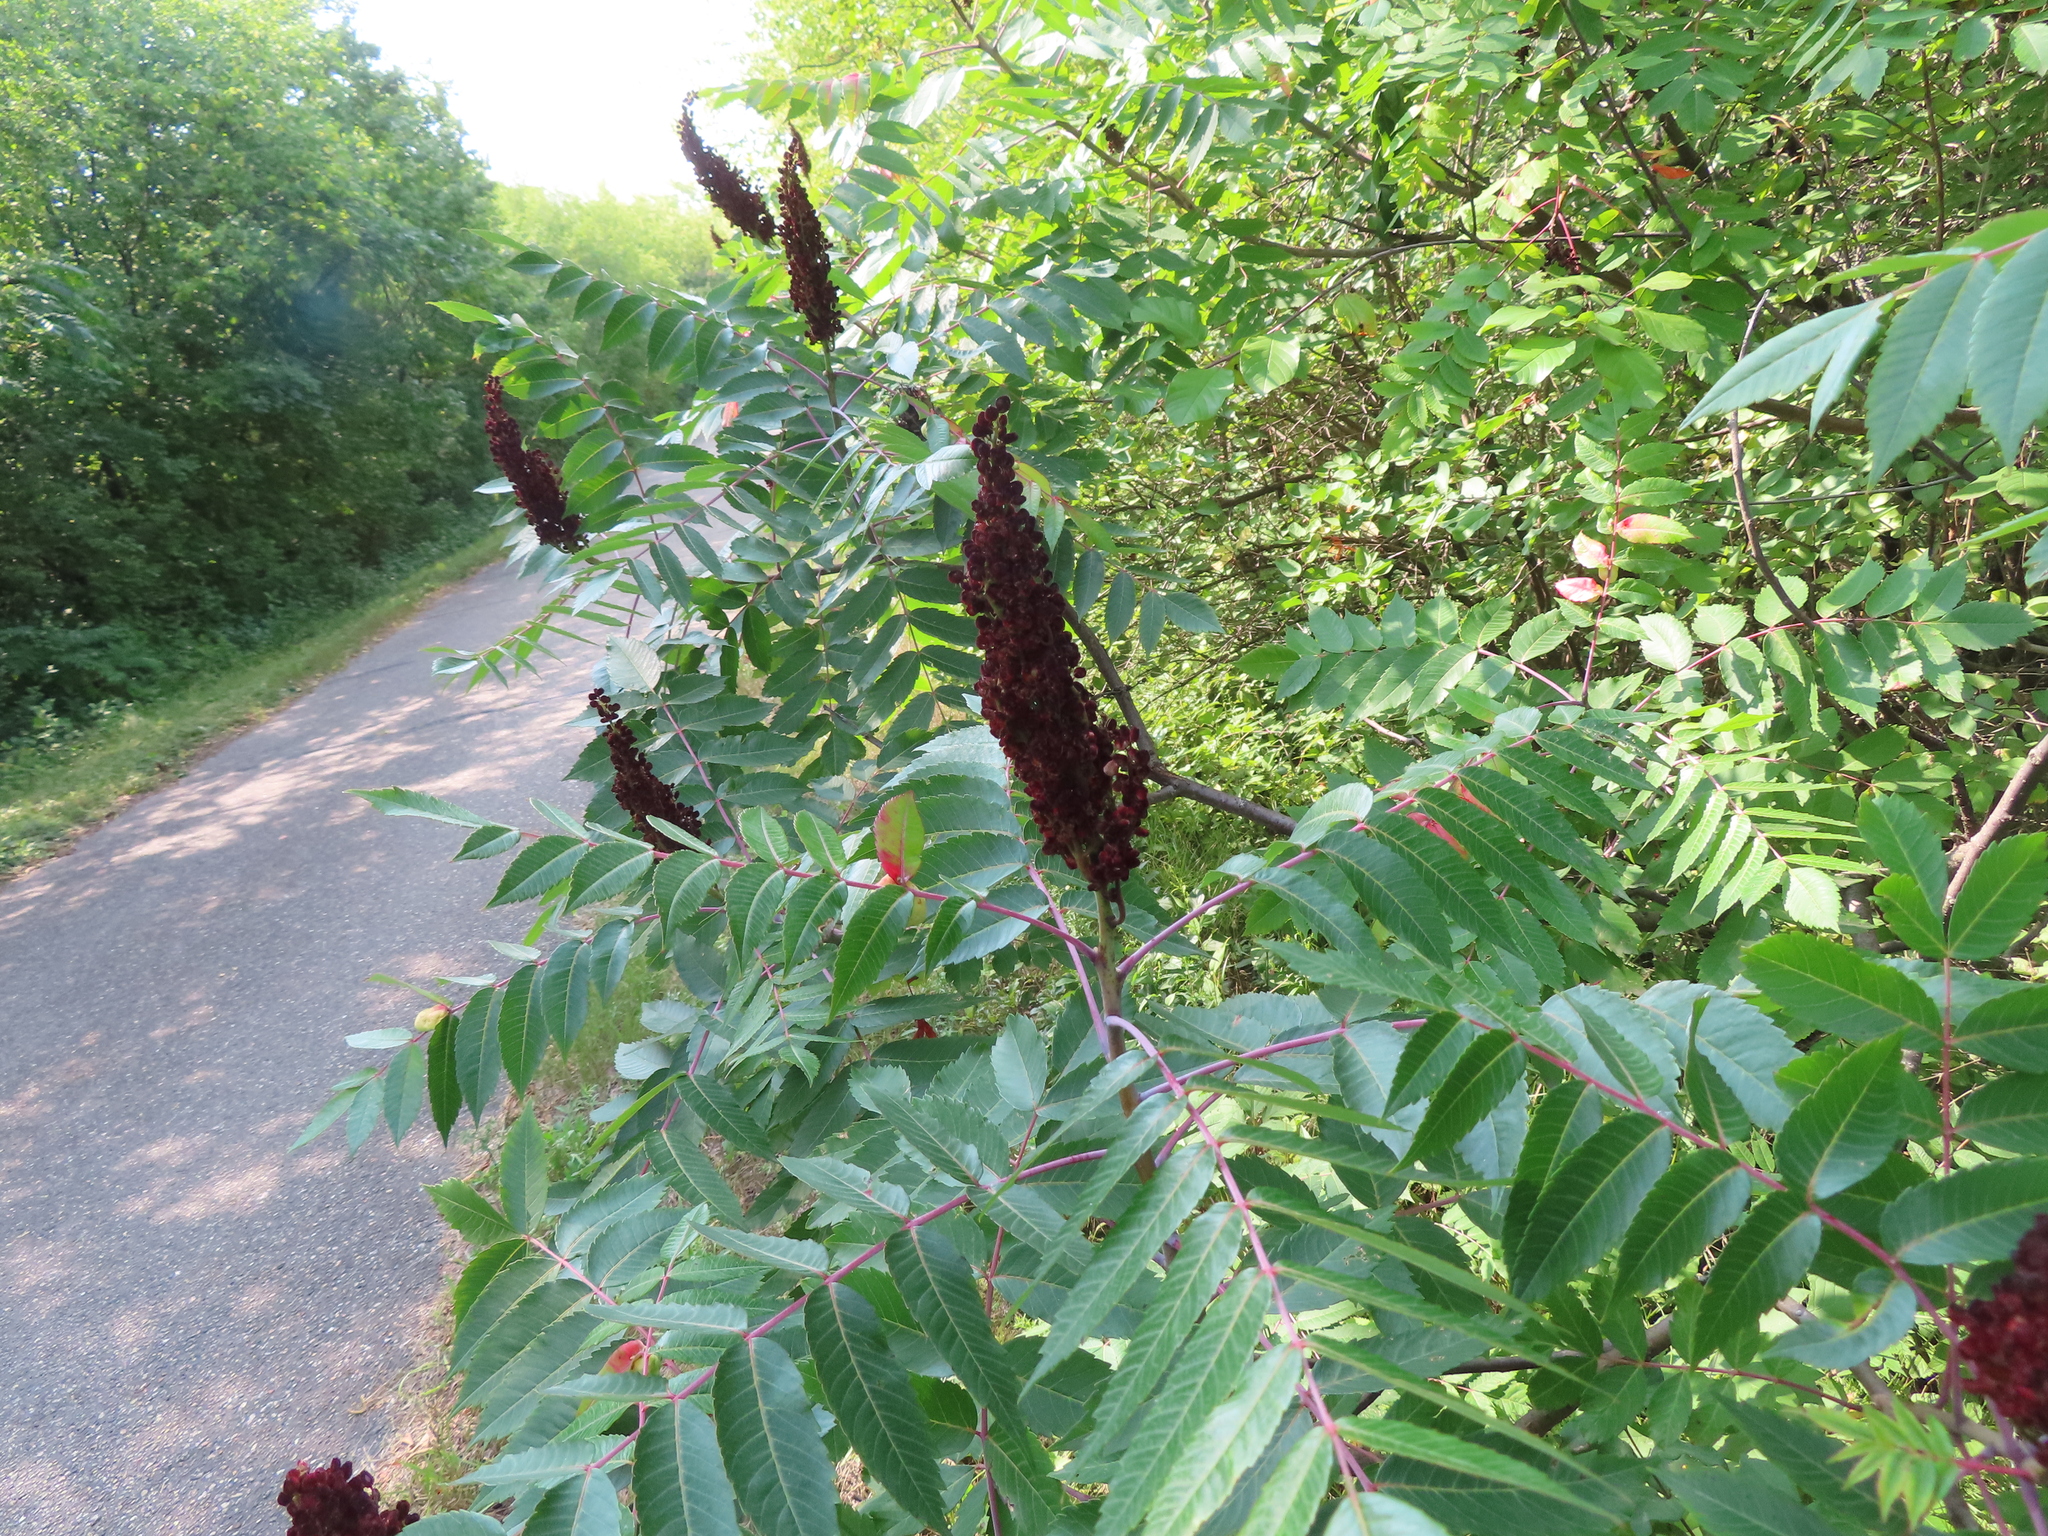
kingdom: Plantae
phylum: Tracheophyta
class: Magnoliopsida
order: Sapindales
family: Anacardiaceae
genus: Rhus
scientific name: Rhus glabra
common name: Scarlet sumac
